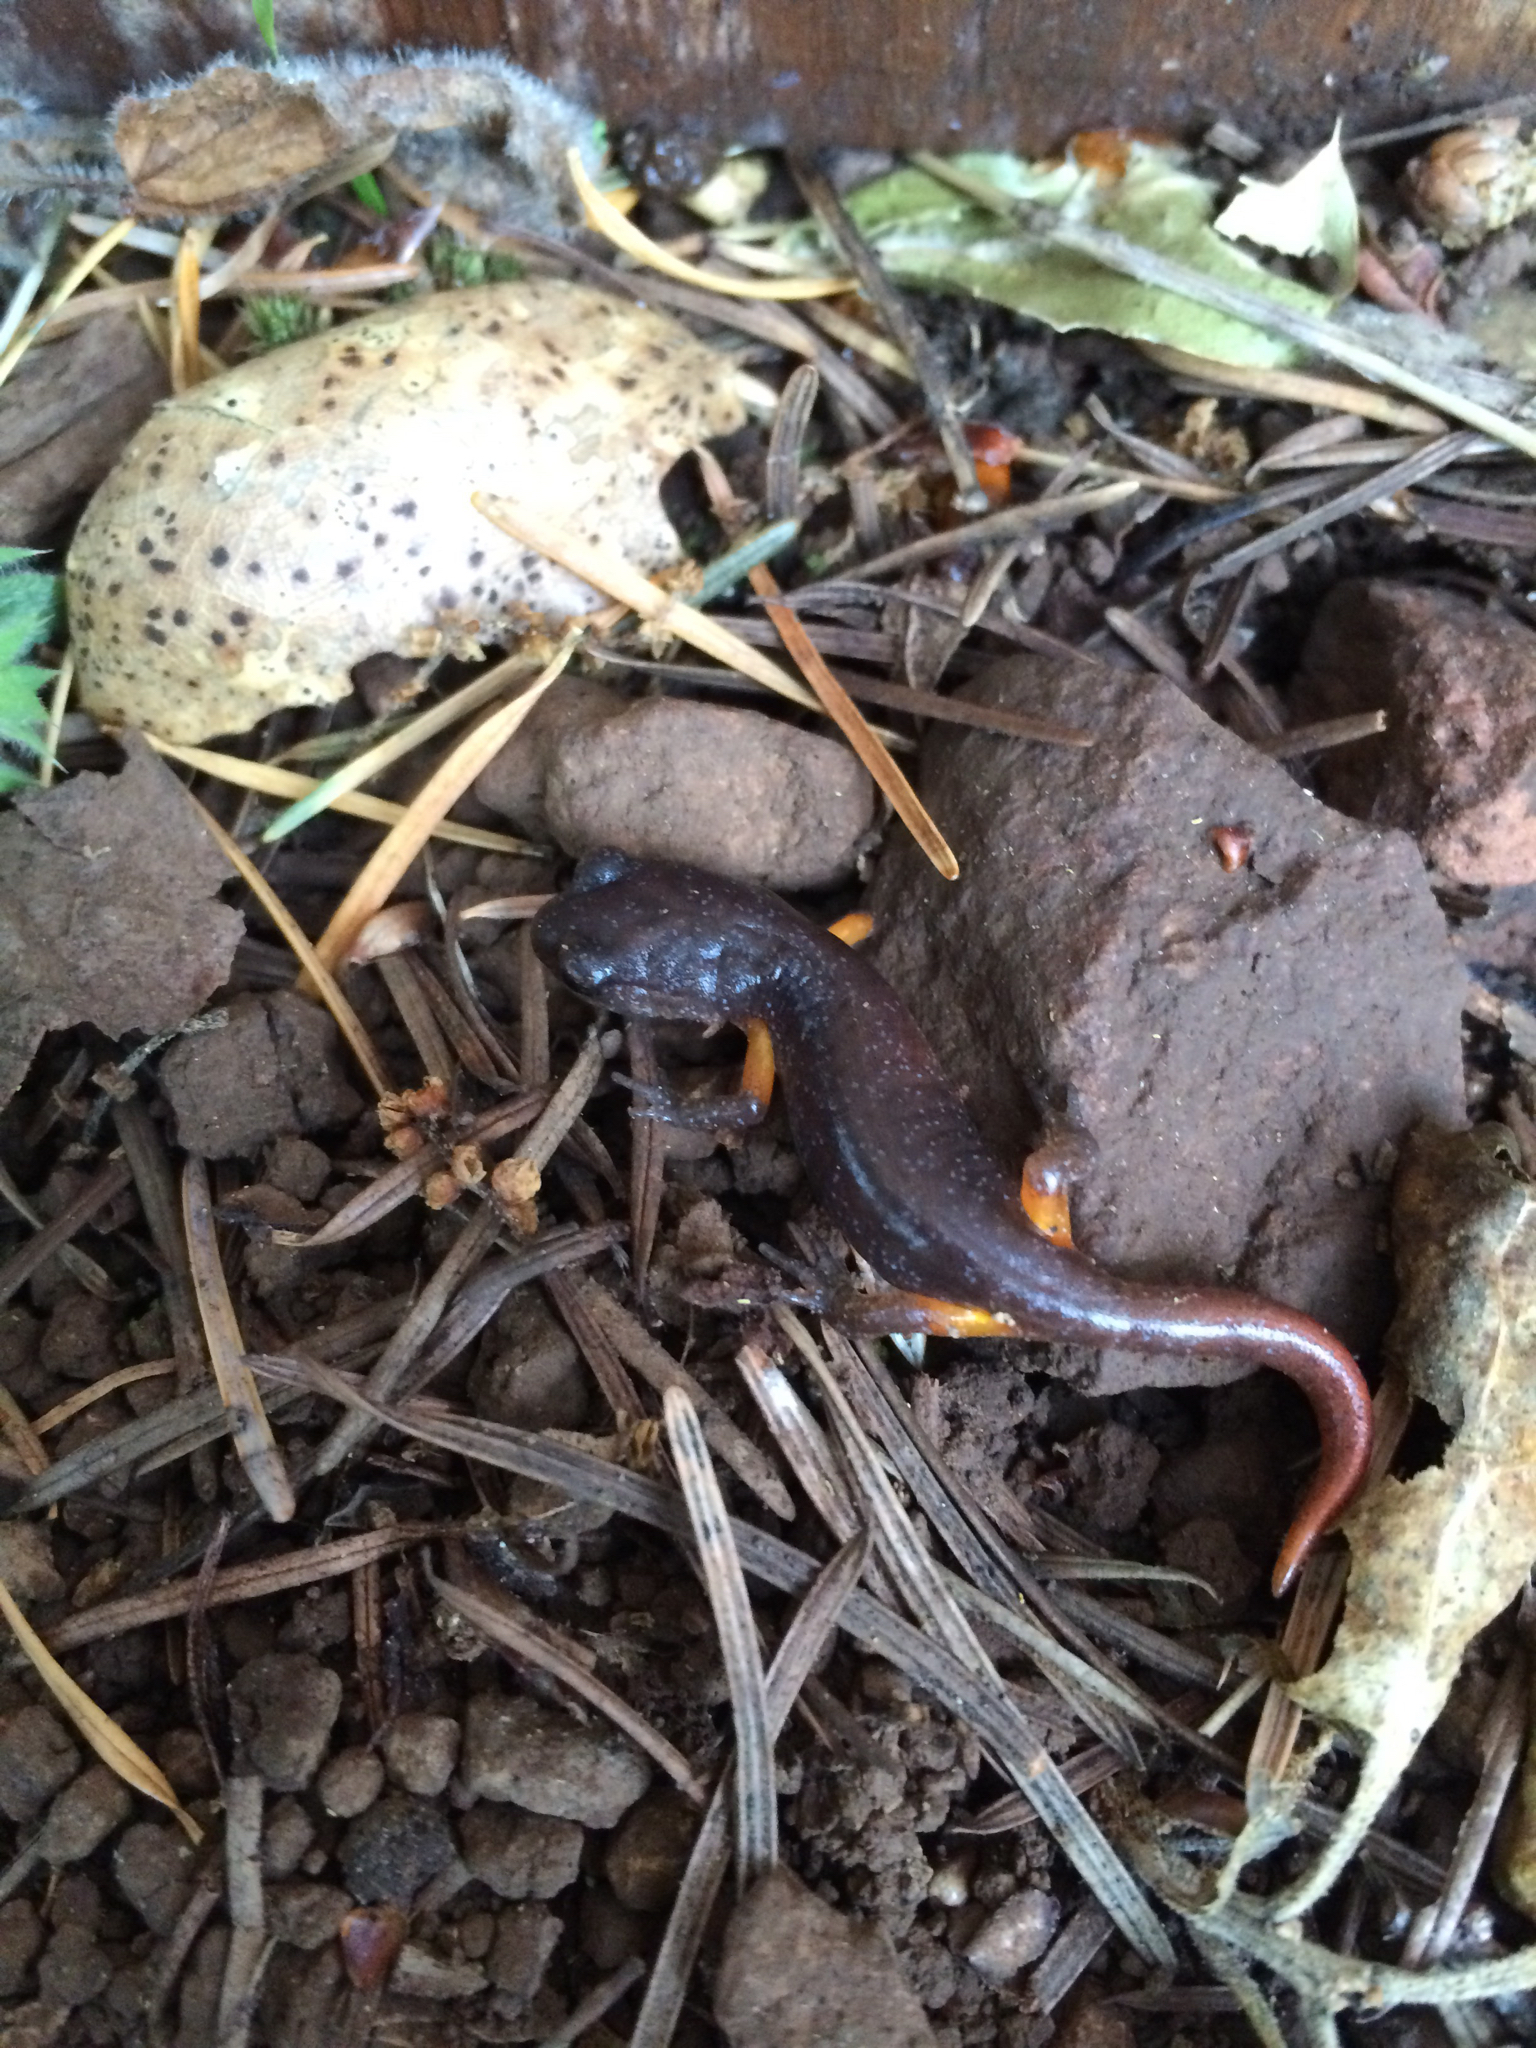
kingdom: Animalia
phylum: Chordata
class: Amphibia
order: Caudata
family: Plethodontidae
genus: Ensatina
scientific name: Ensatina eschscholtzii
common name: Ensatina
